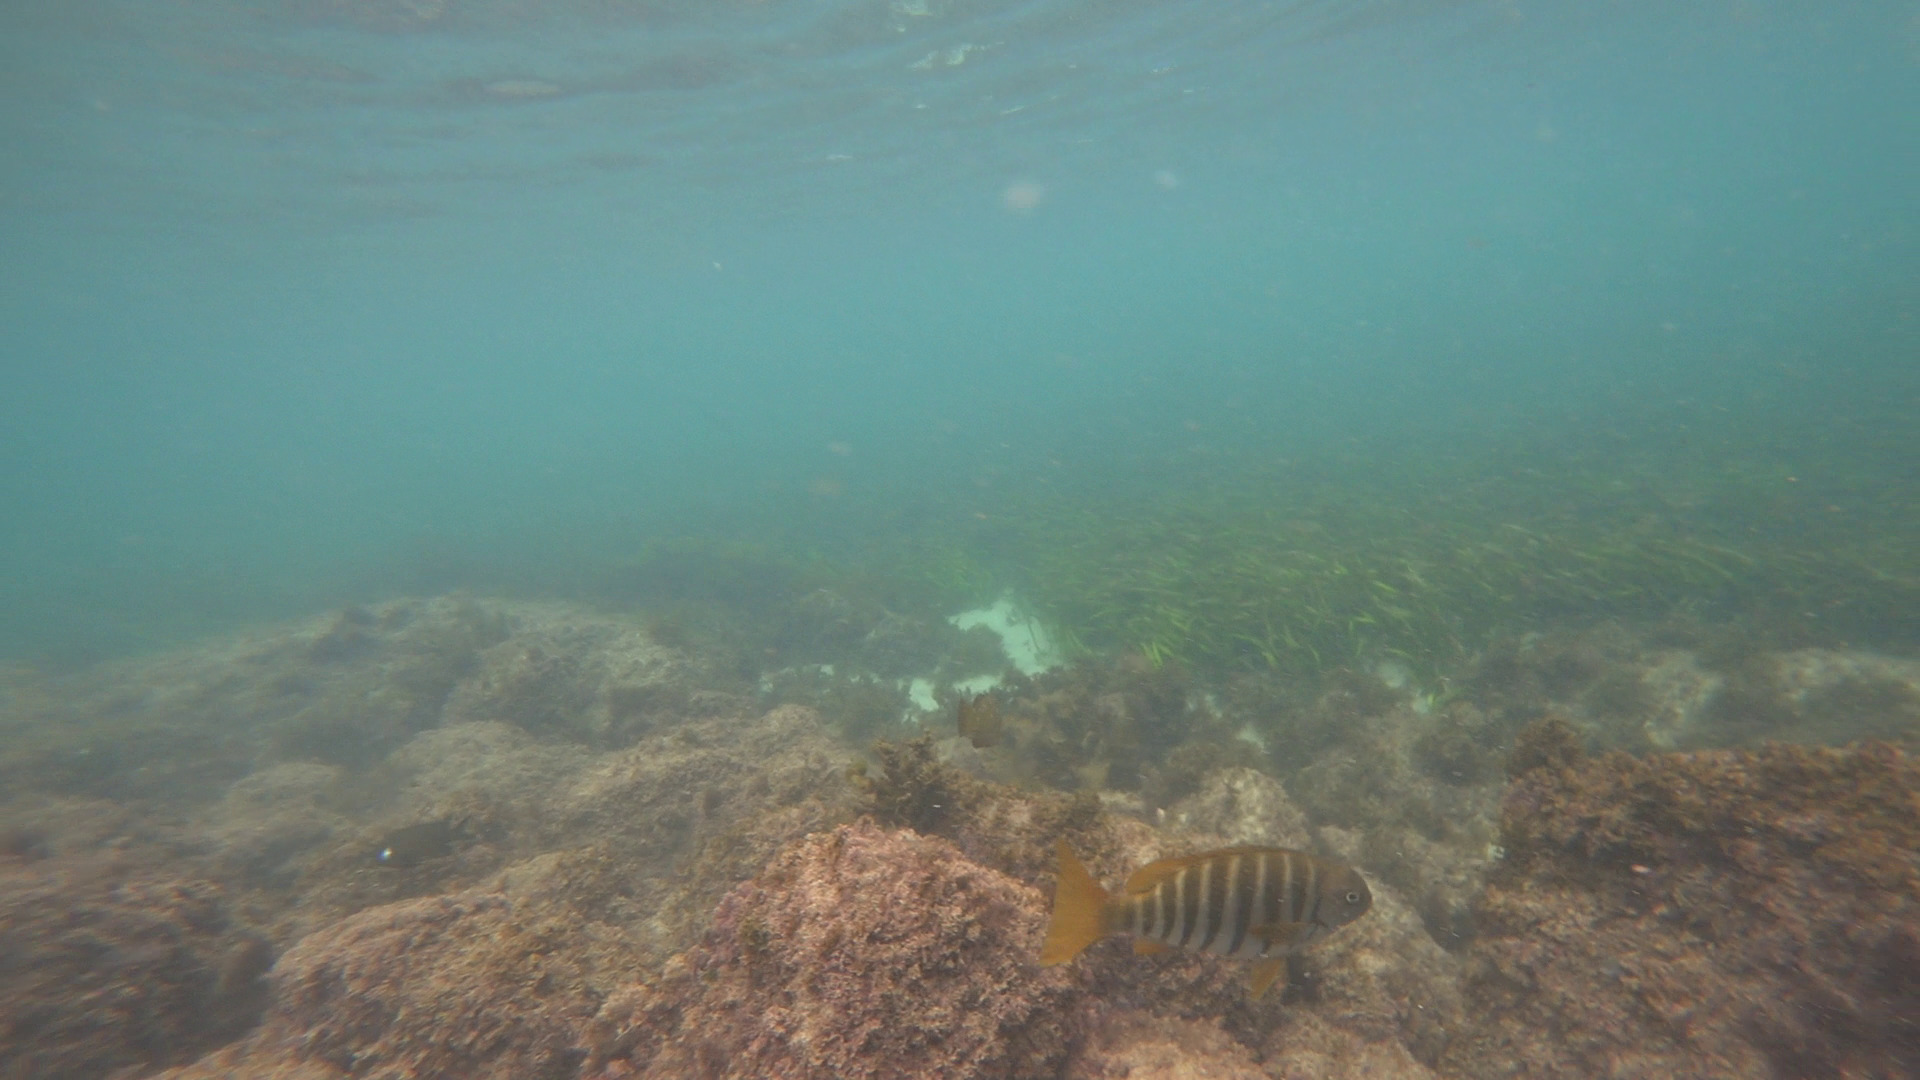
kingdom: Animalia
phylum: Chordata
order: Perciformes
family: Kyphosidae
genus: Girella
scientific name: Girella zebra
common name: Stripey bream
